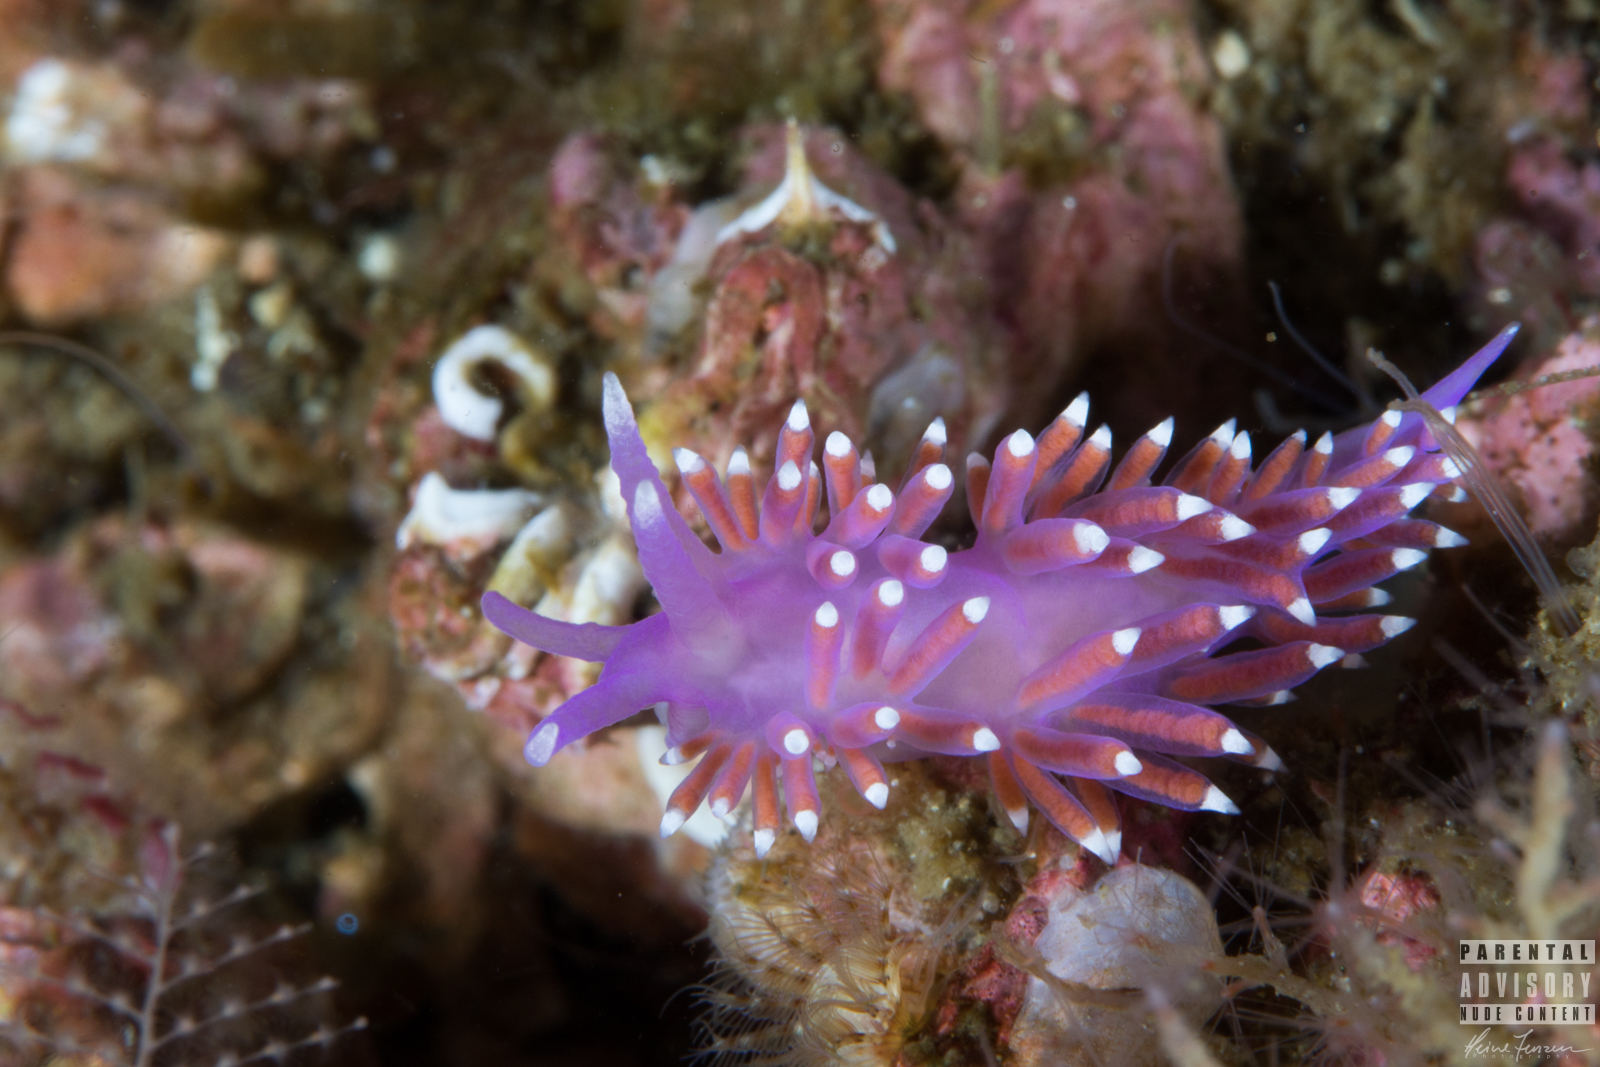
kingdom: Animalia
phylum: Mollusca
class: Gastropoda
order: Nudibranchia
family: Flabellinidae
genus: Edmundsella
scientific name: Edmundsella pedata
